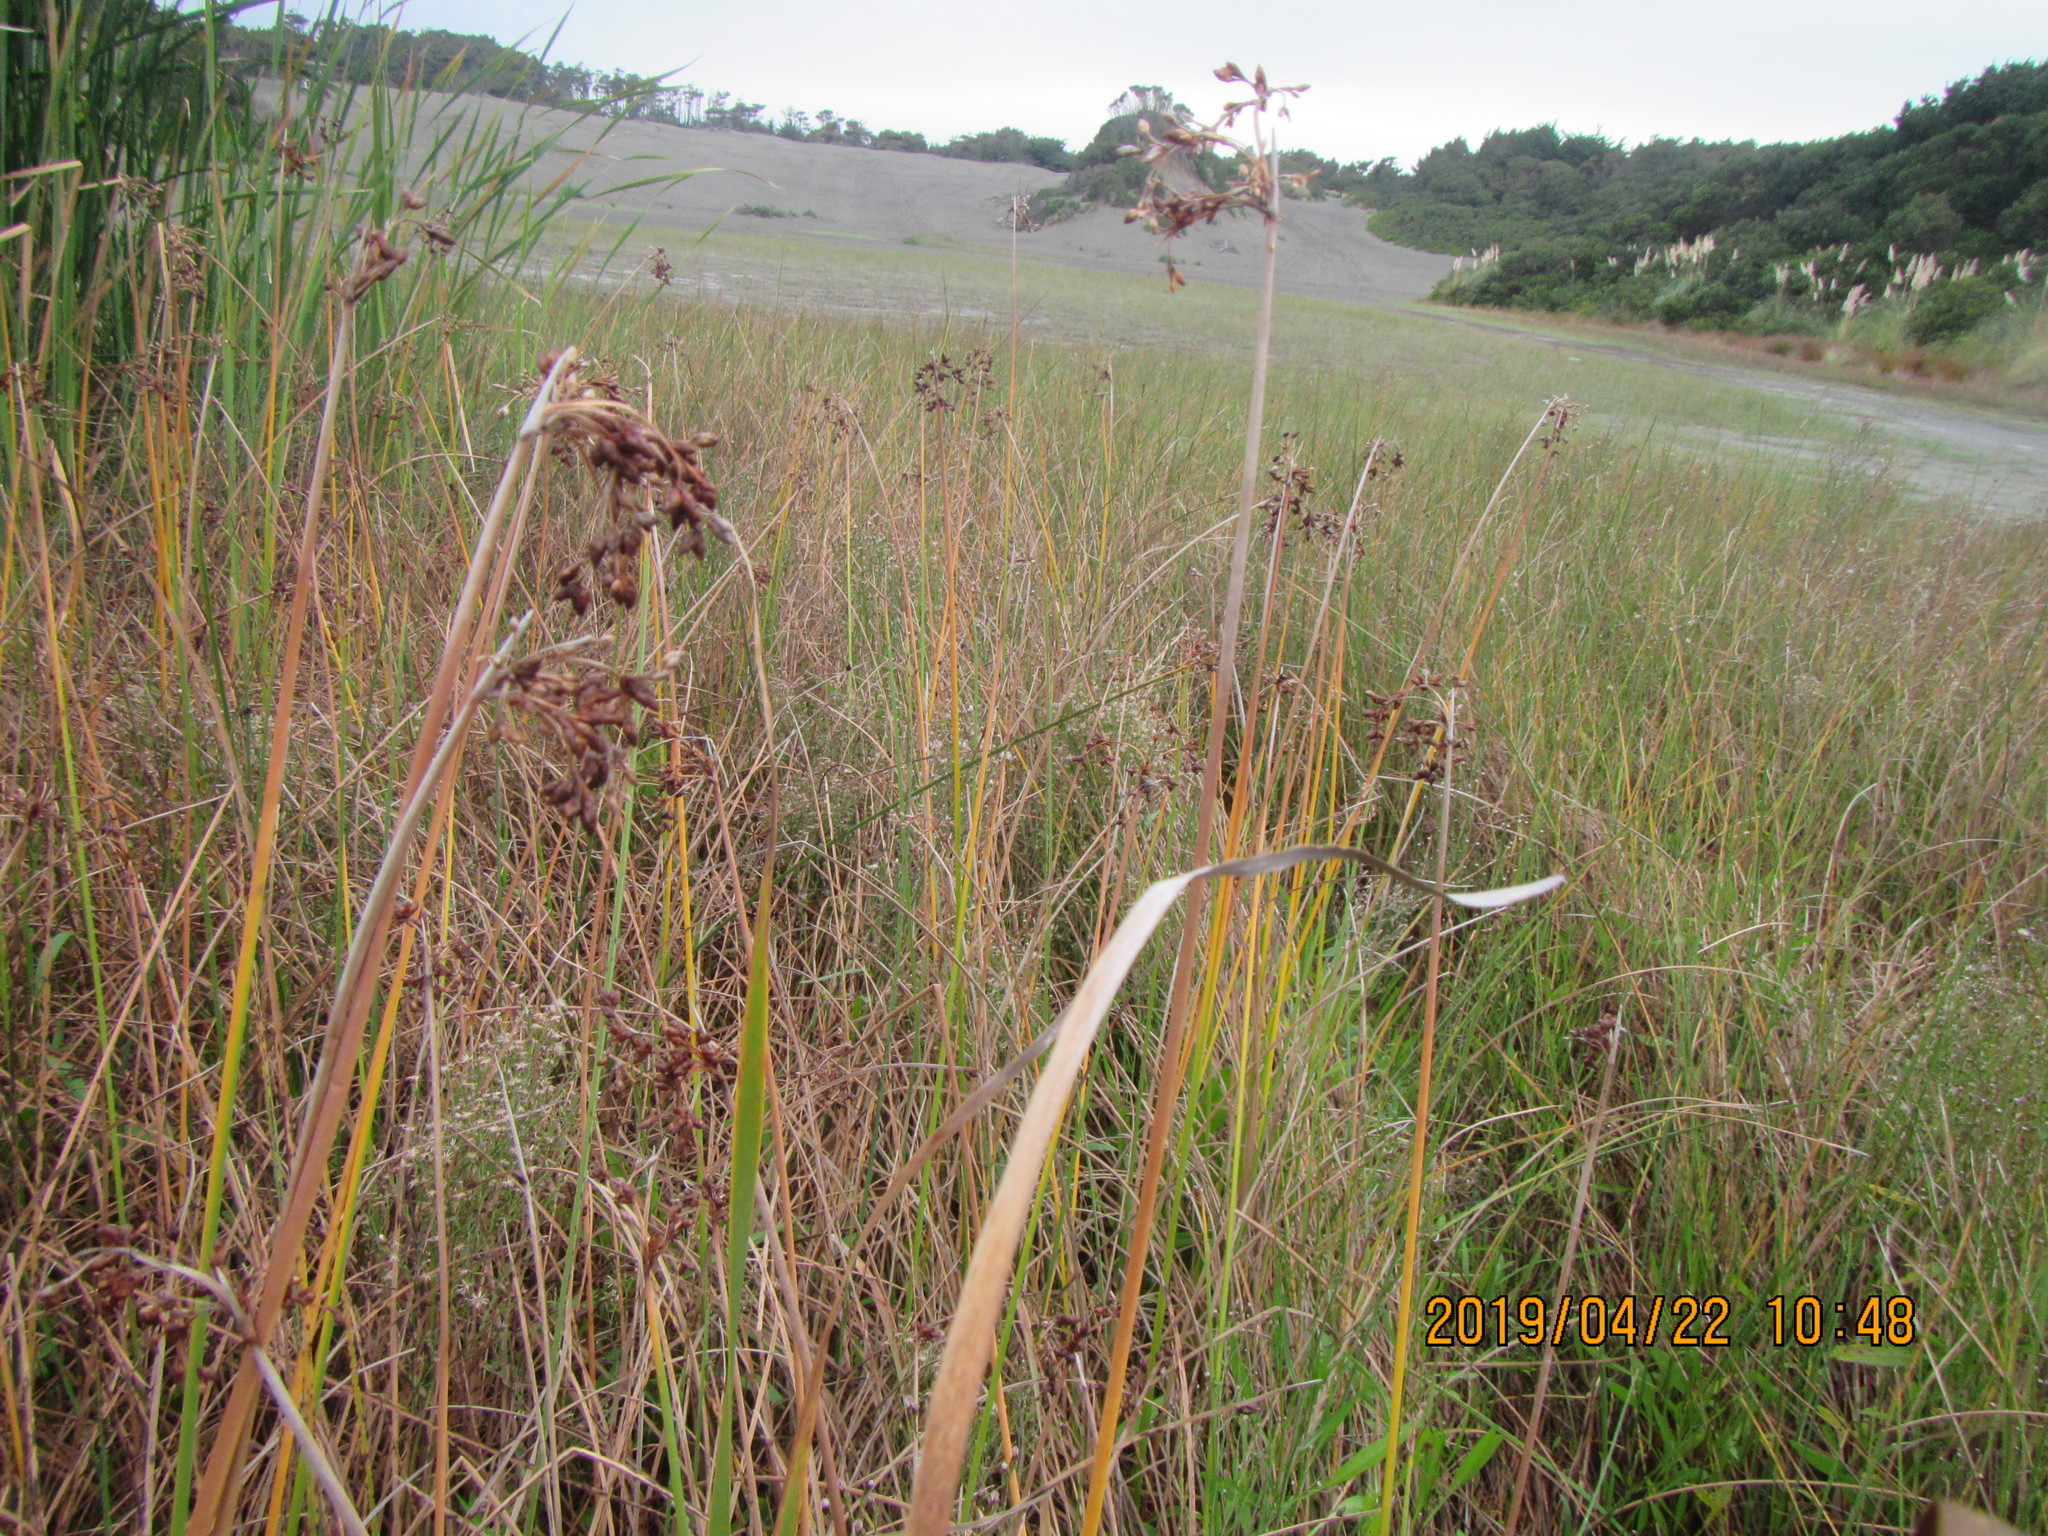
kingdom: Plantae
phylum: Tracheophyta
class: Liliopsida
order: Poales
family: Cyperaceae
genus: Schoenoplectus
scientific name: Schoenoplectus tabernaemontani
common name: Grey club-rush
